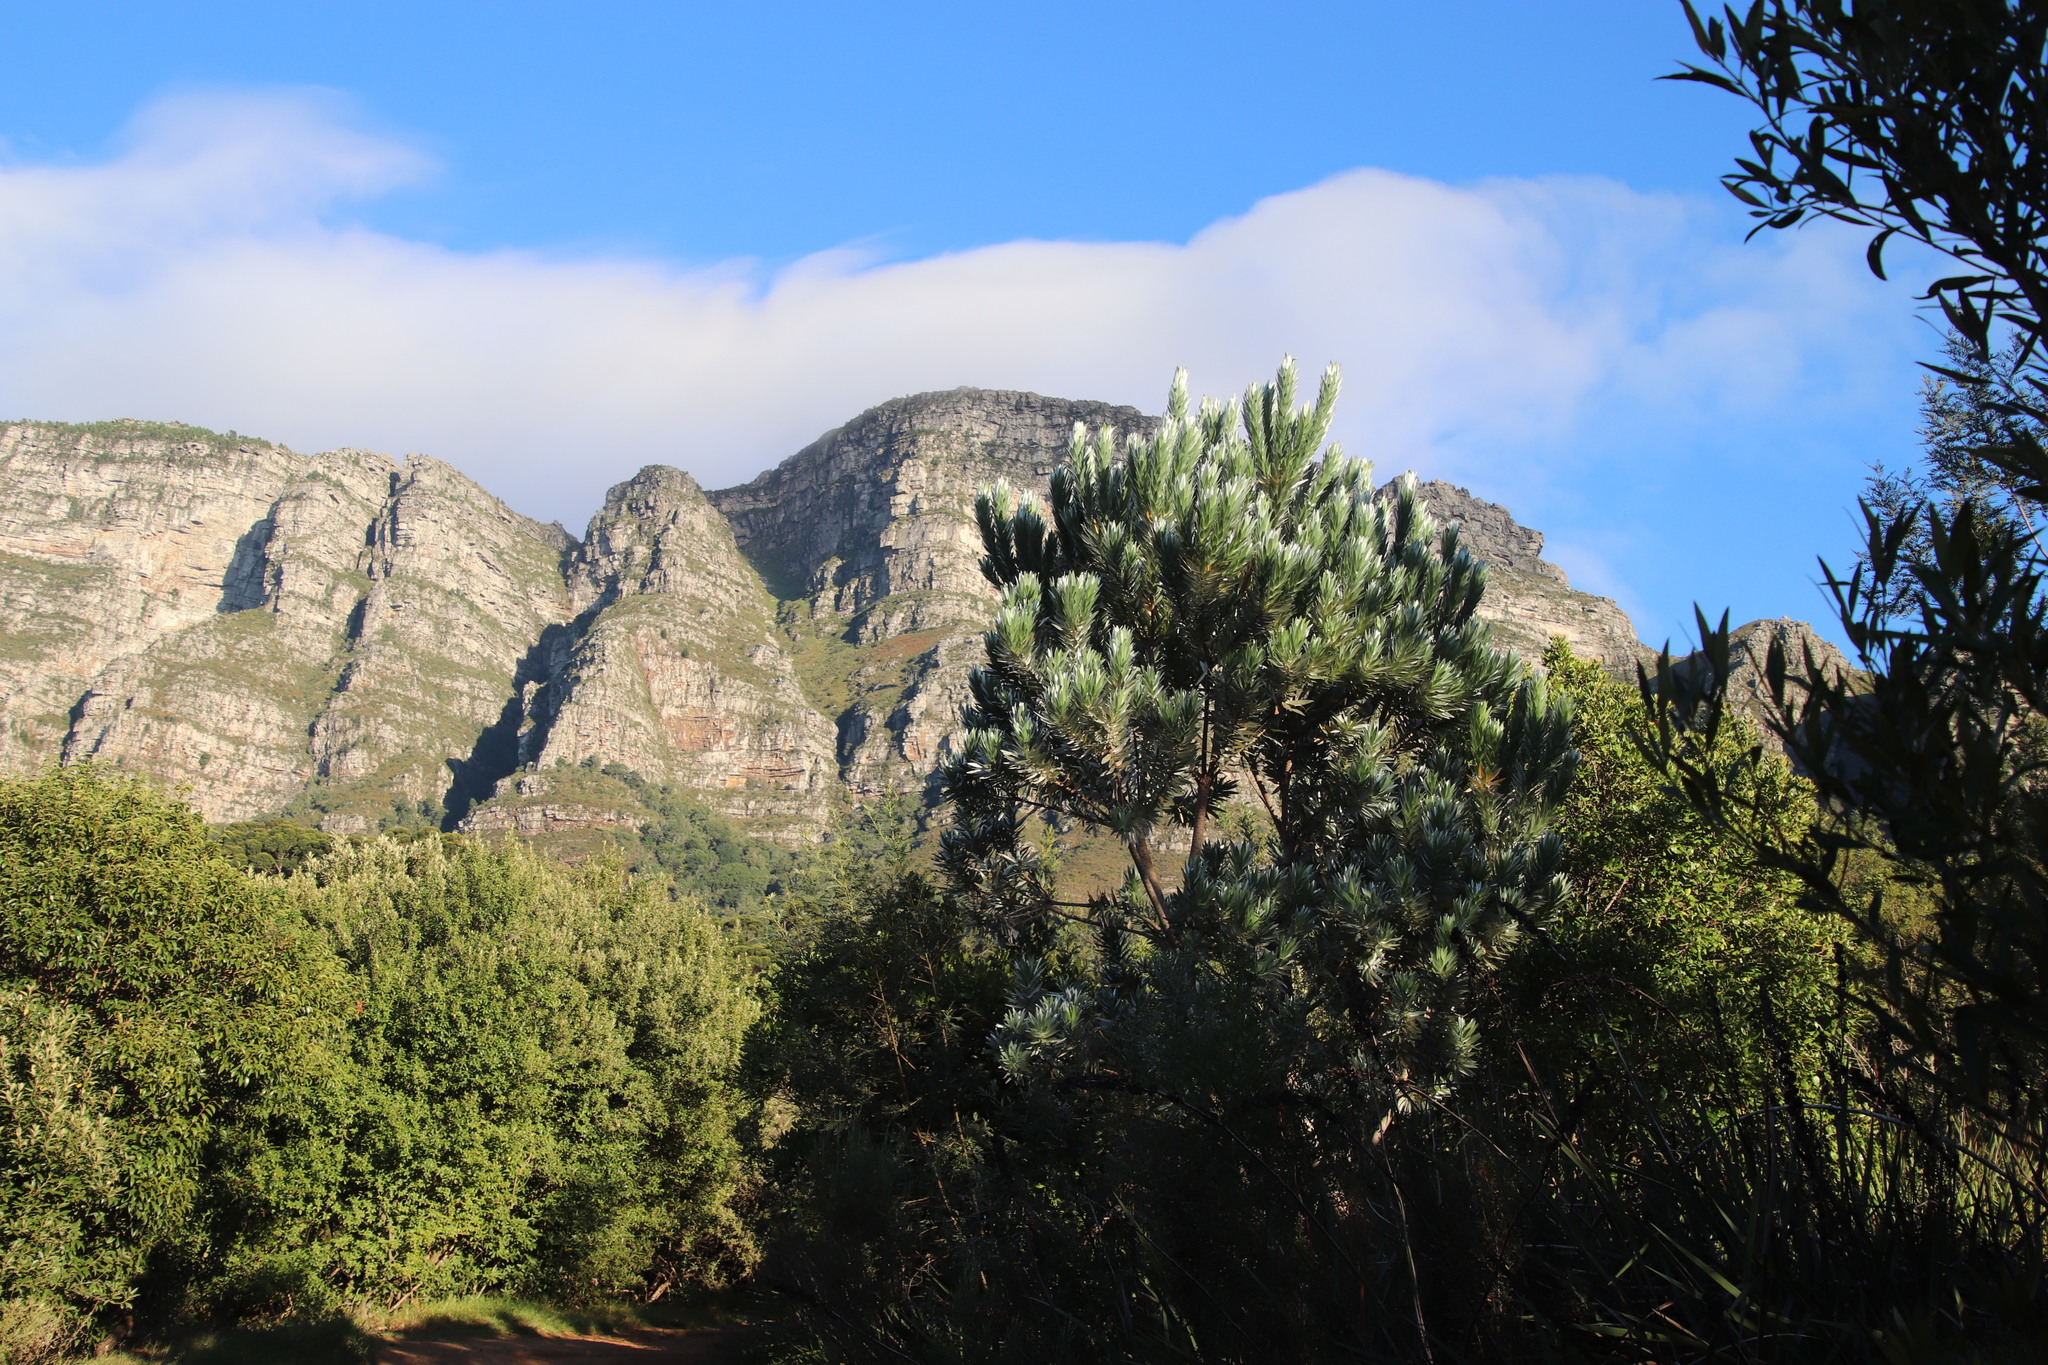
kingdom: Plantae
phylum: Tracheophyta
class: Magnoliopsida
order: Proteales
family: Proteaceae
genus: Leucadendron
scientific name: Leucadendron argenteum
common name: Cape silver tree
